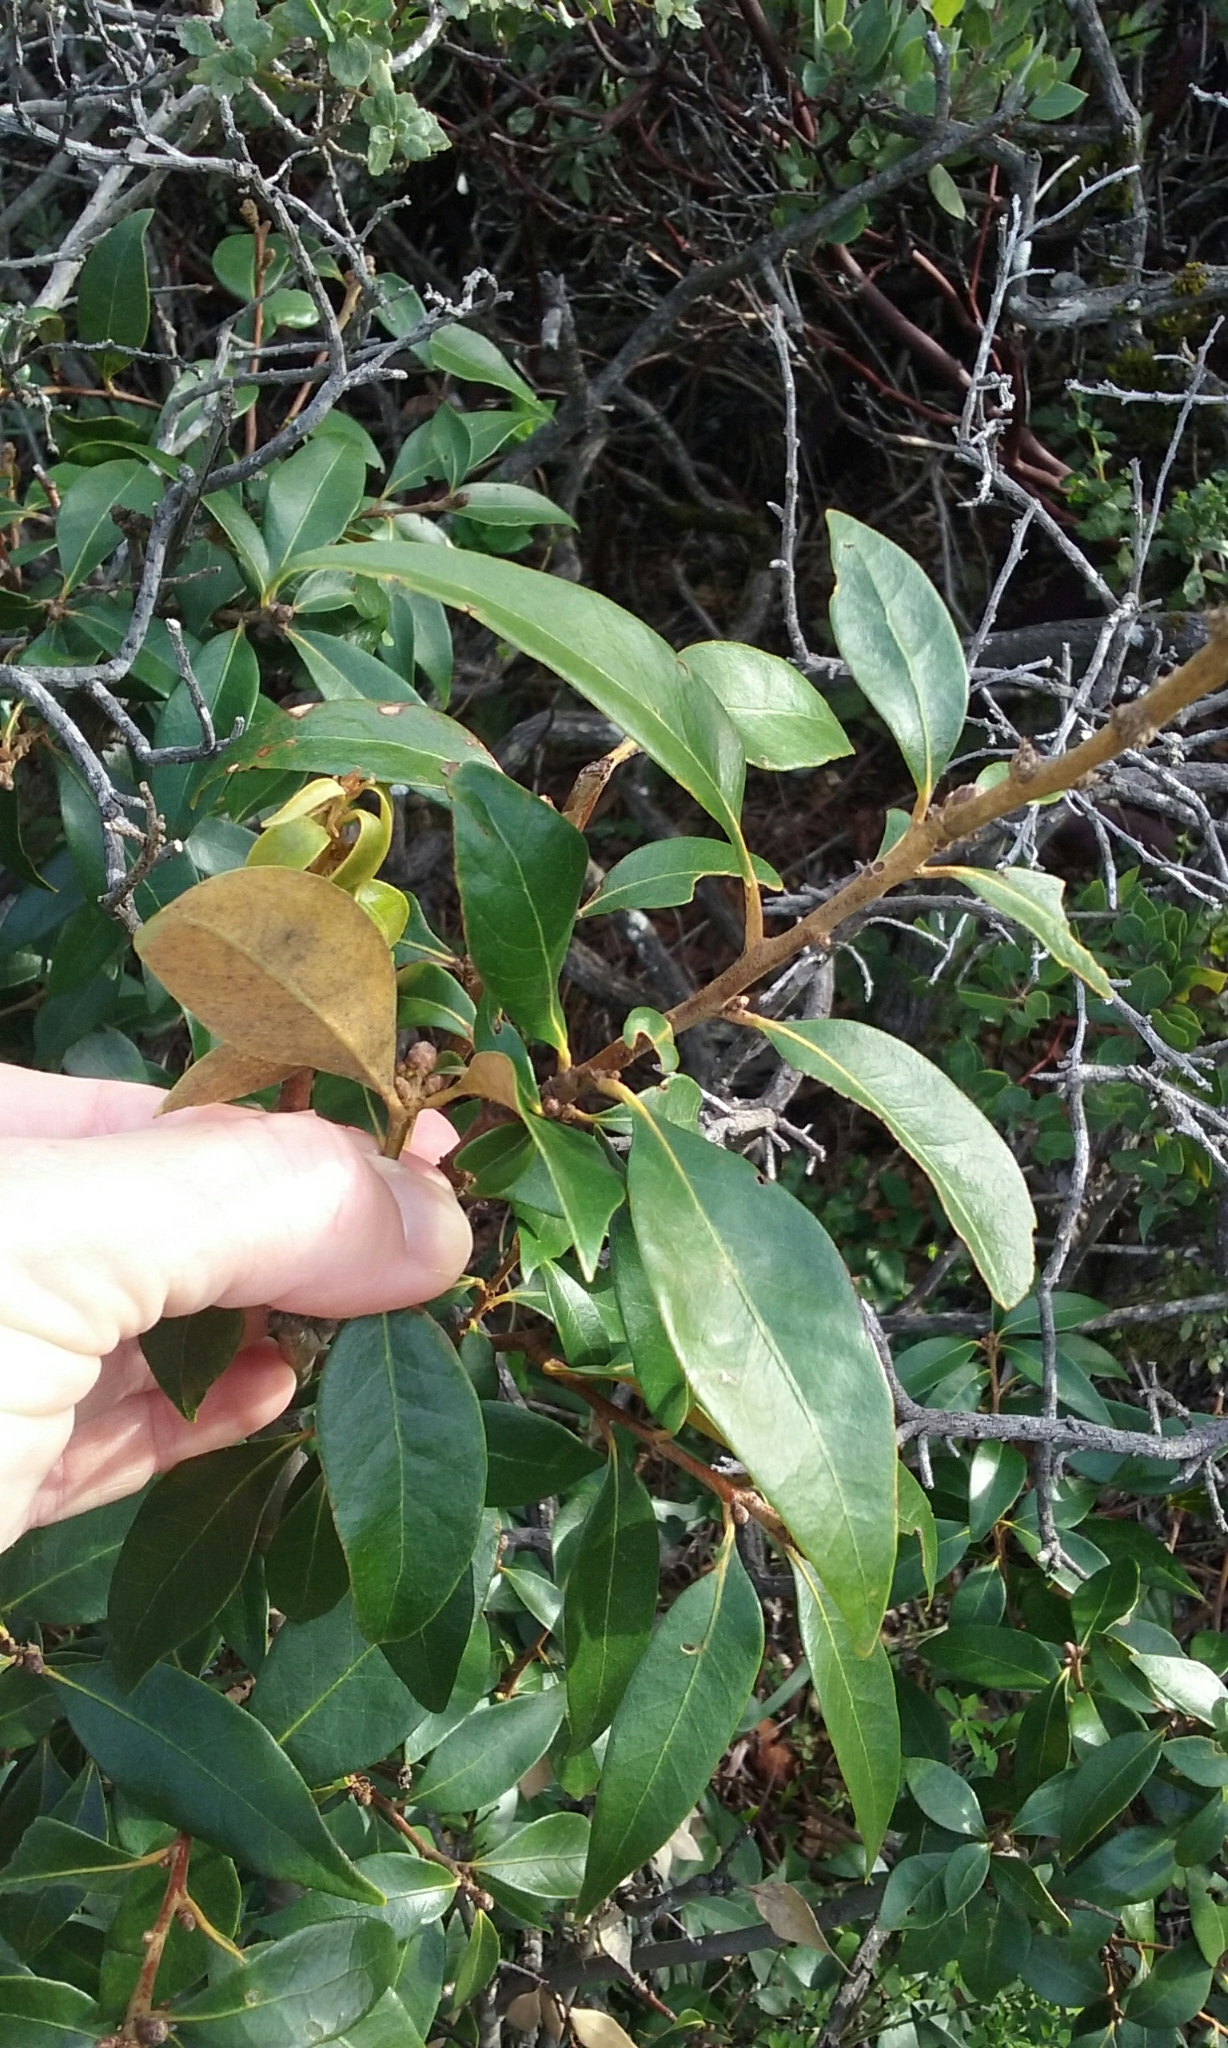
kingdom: Plantae
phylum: Tracheophyta
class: Magnoliopsida
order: Fagales
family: Fagaceae
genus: Chrysolepis
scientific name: Chrysolepis chrysophylla
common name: Giant chinquapin
